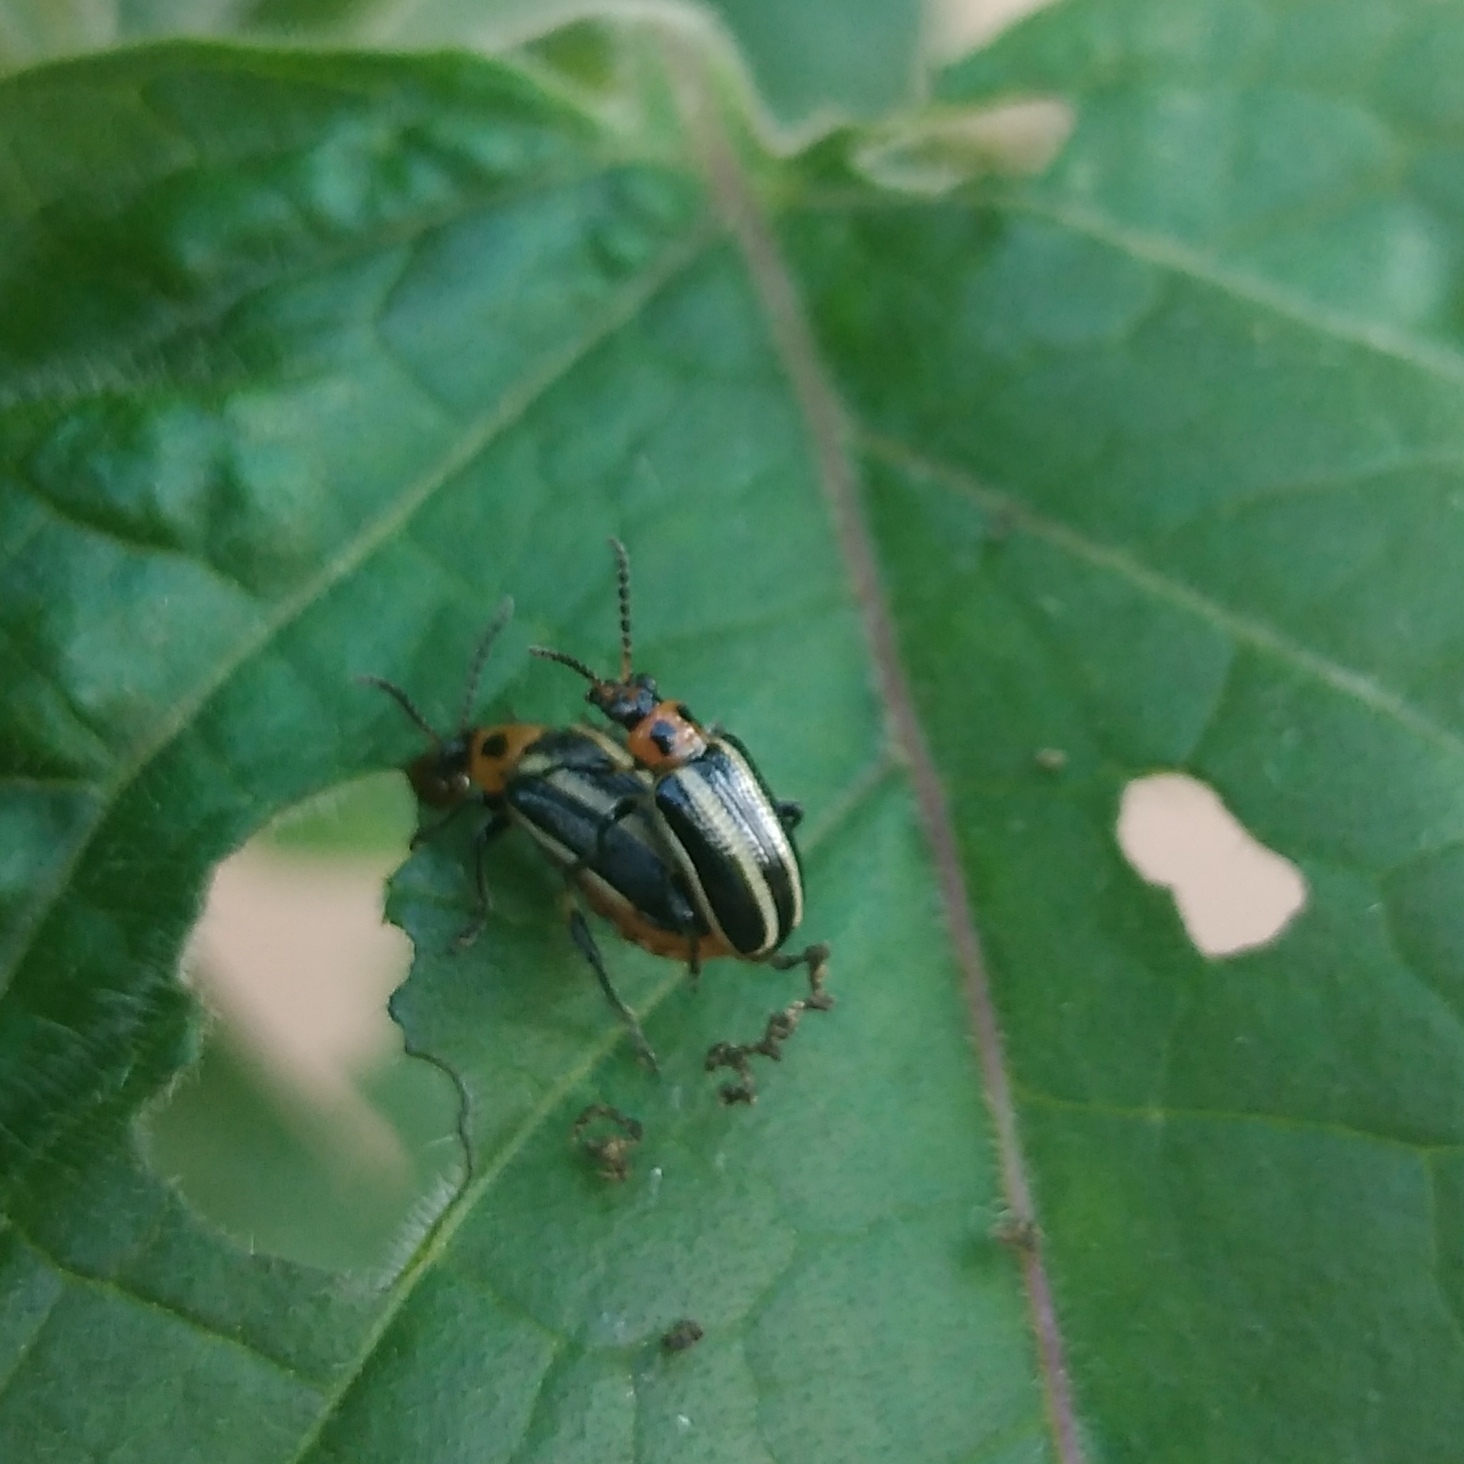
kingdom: Animalia
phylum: Arthropoda
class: Insecta
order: Coleoptera
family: Chrysomelidae
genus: Lema
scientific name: Lema bilineata
